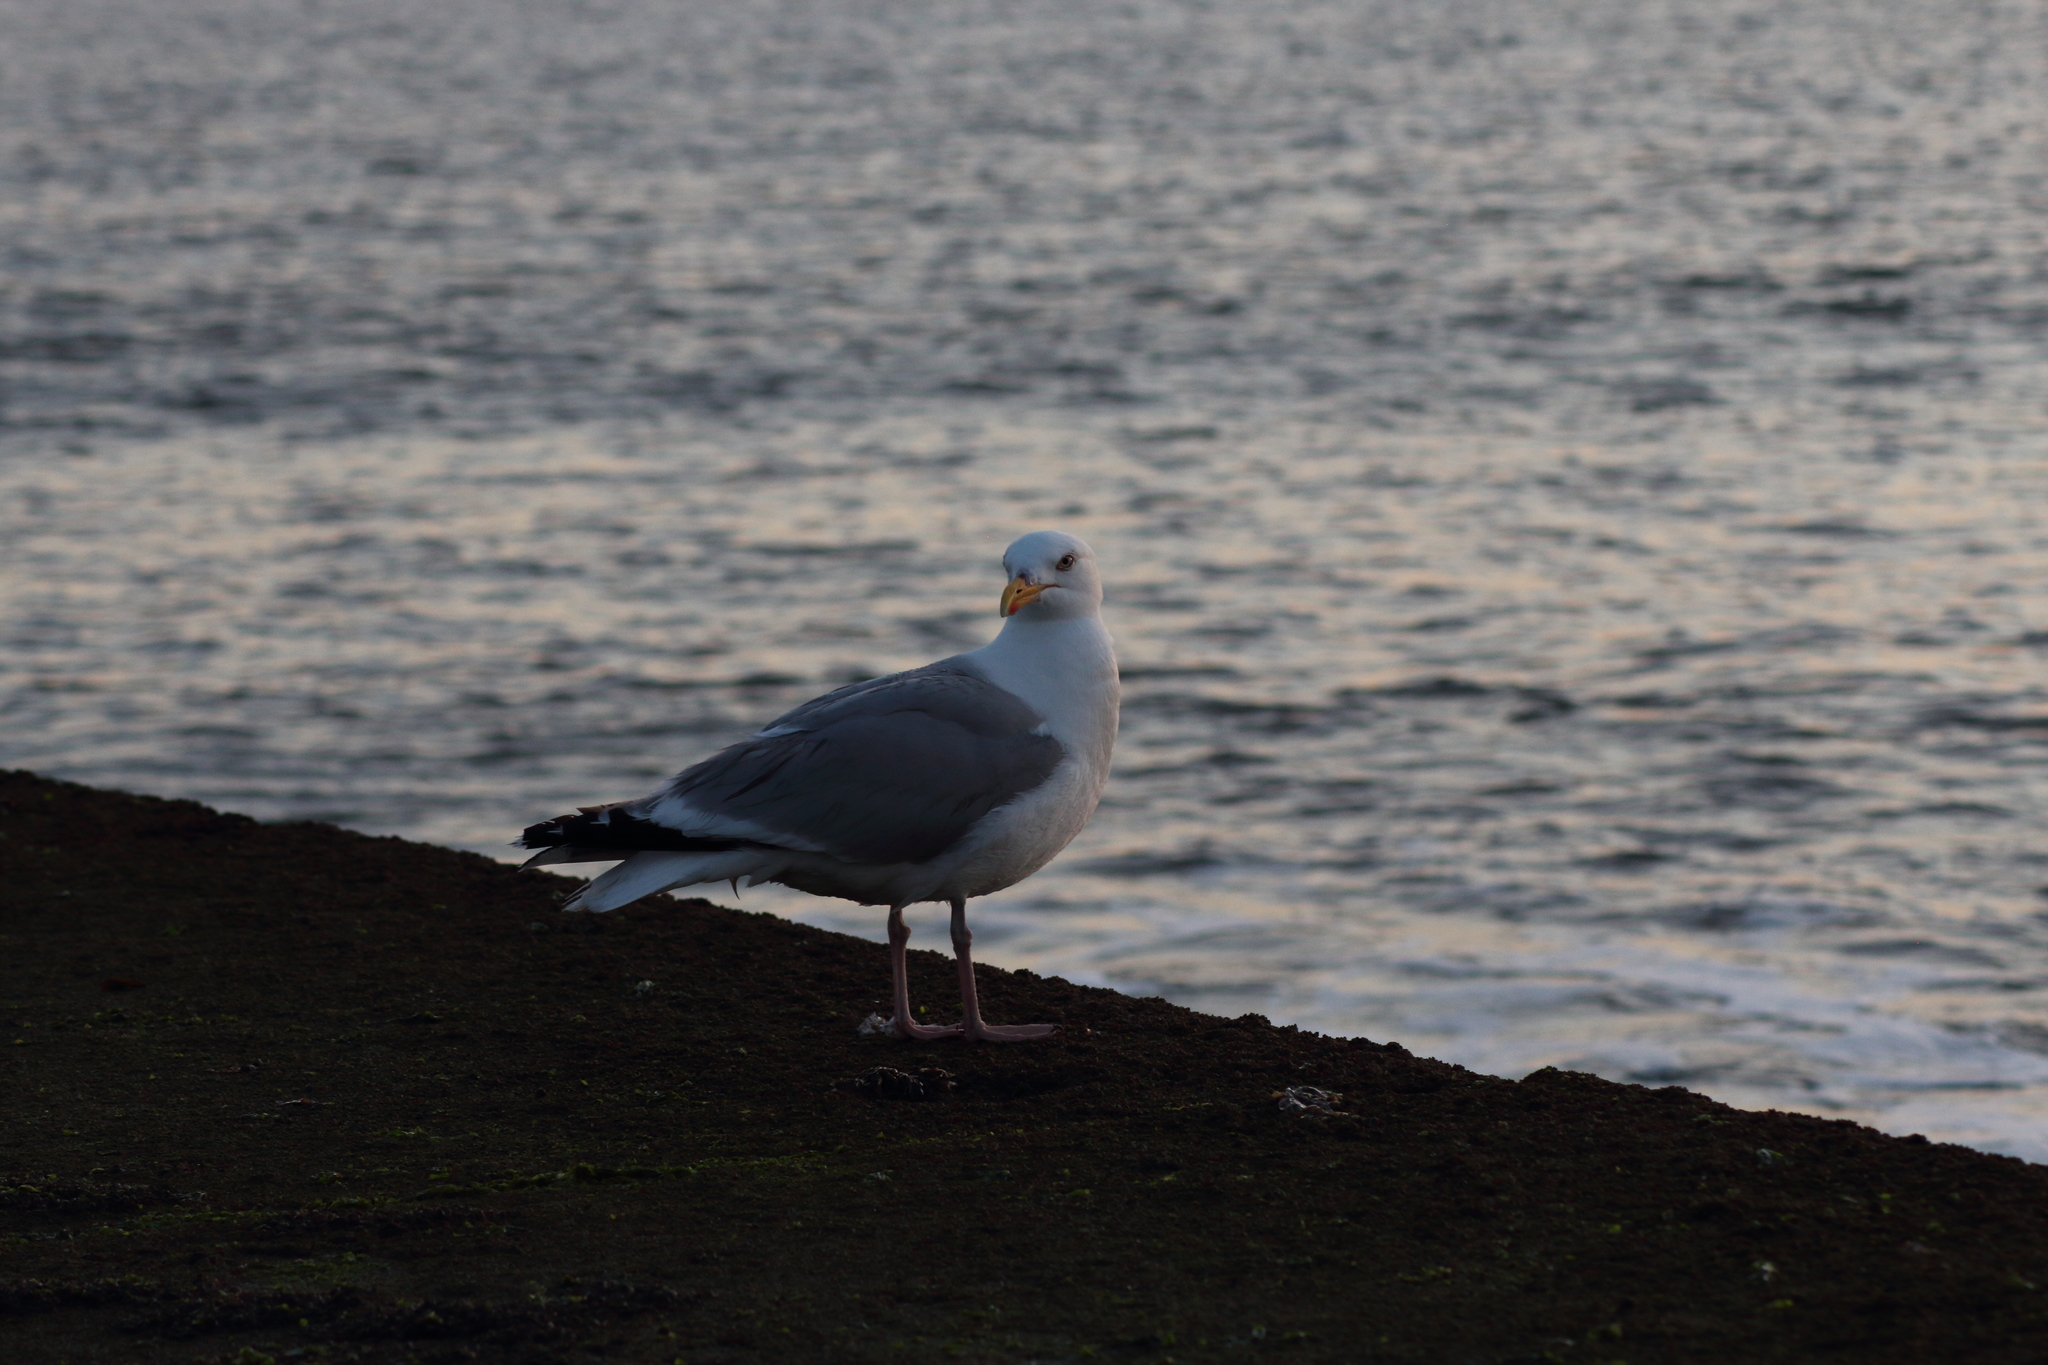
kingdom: Animalia
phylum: Chordata
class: Aves
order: Charadriiformes
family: Laridae
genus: Larus
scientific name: Larus argentatus
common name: Herring gull
